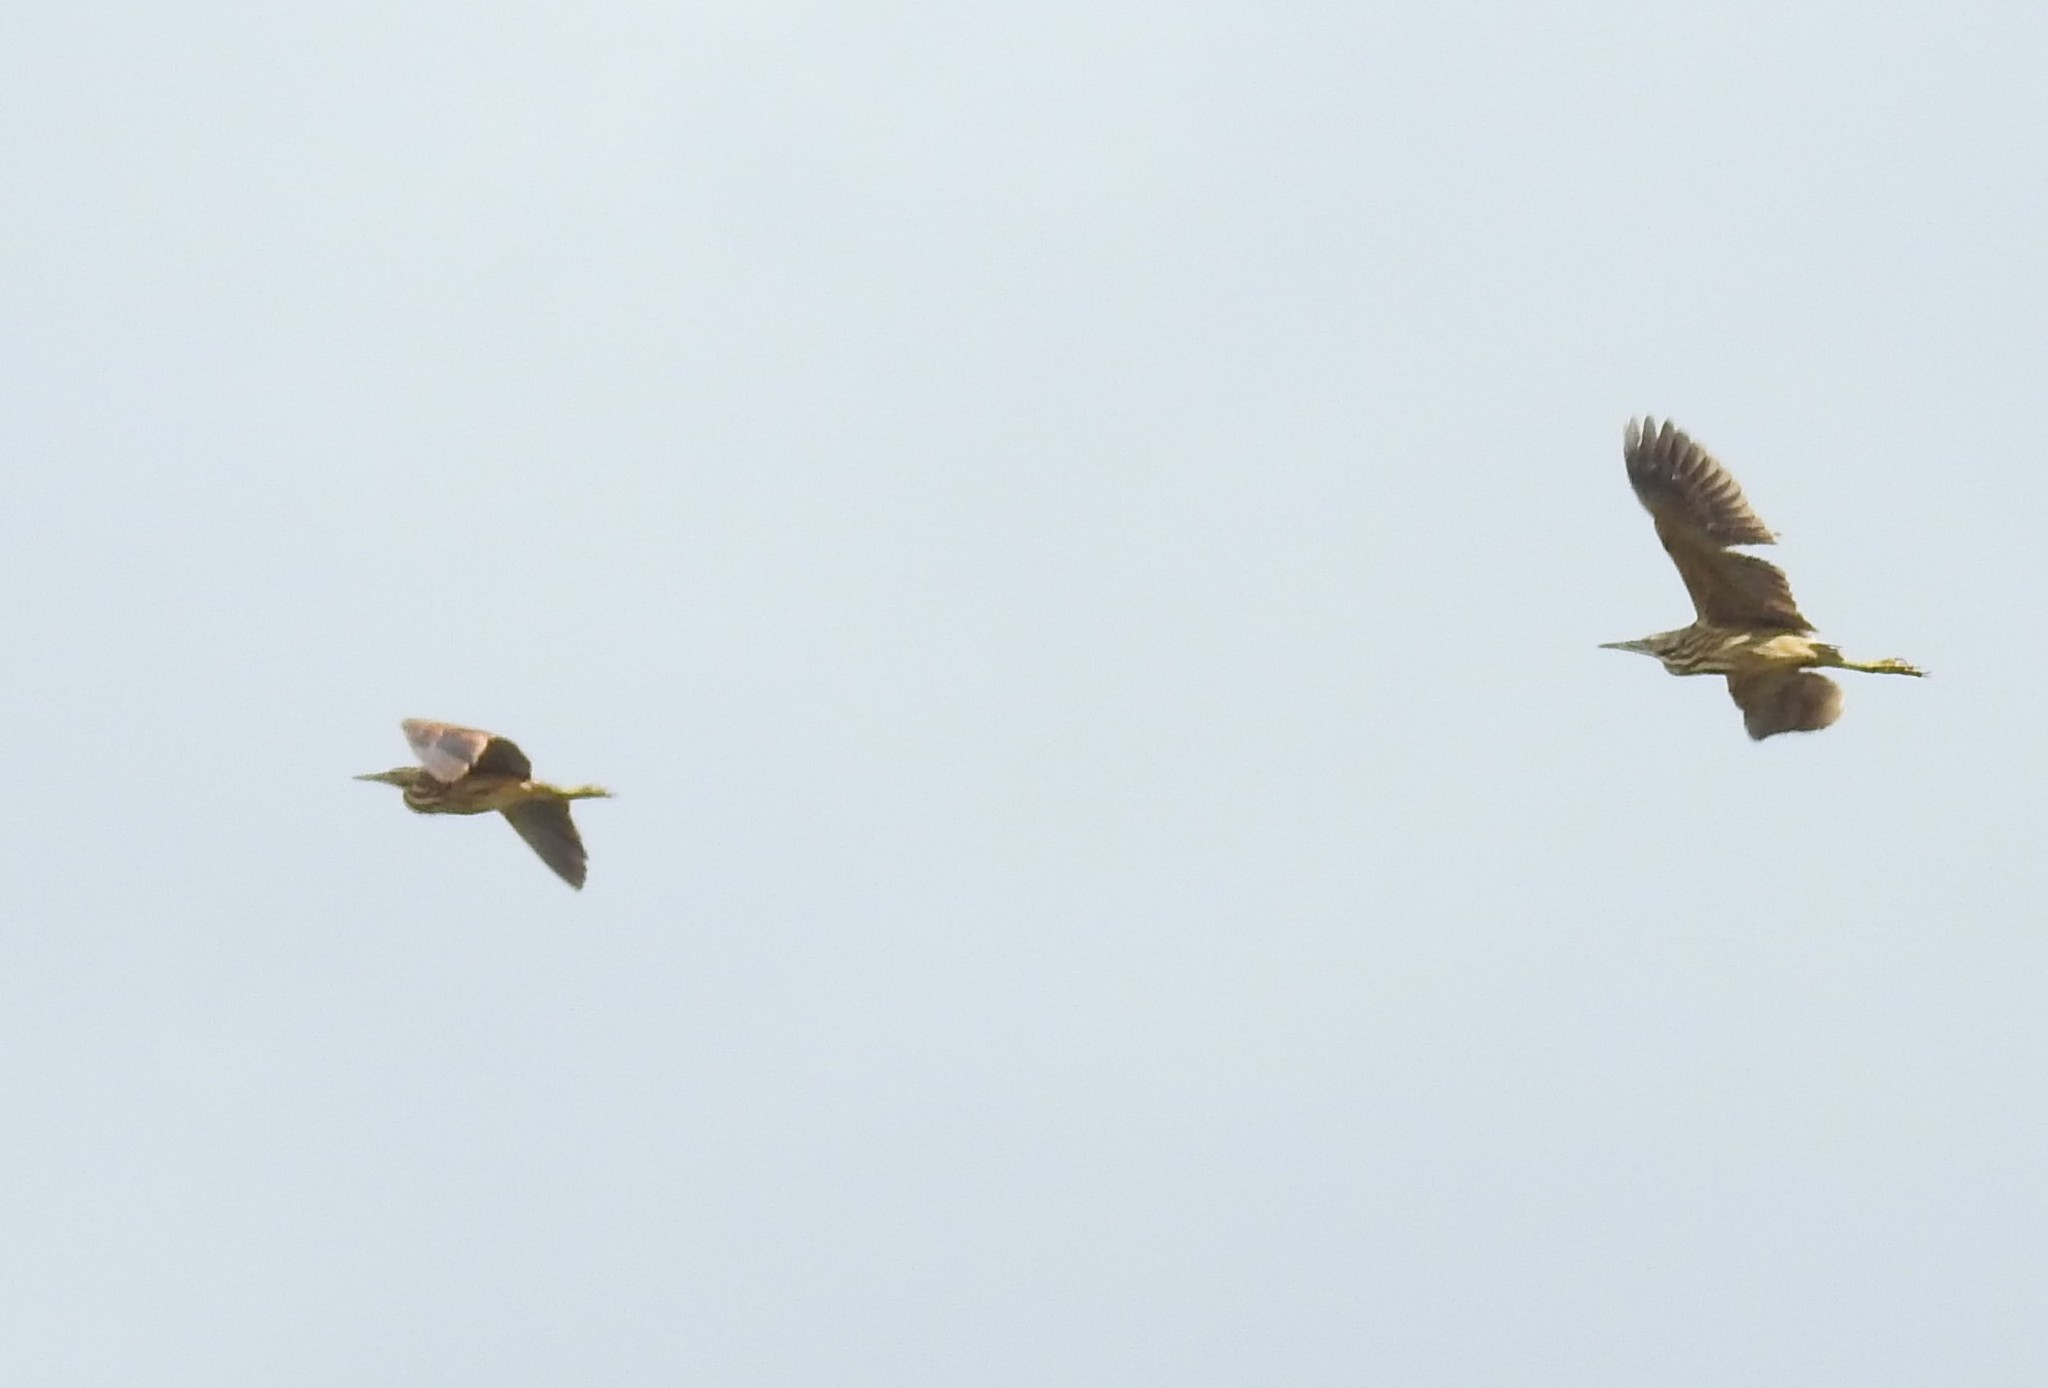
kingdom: Animalia
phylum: Chordata
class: Aves
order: Pelecaniformes
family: Ardeidae
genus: Botaurus
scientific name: Botaurus lentiginosus
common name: American bittern
